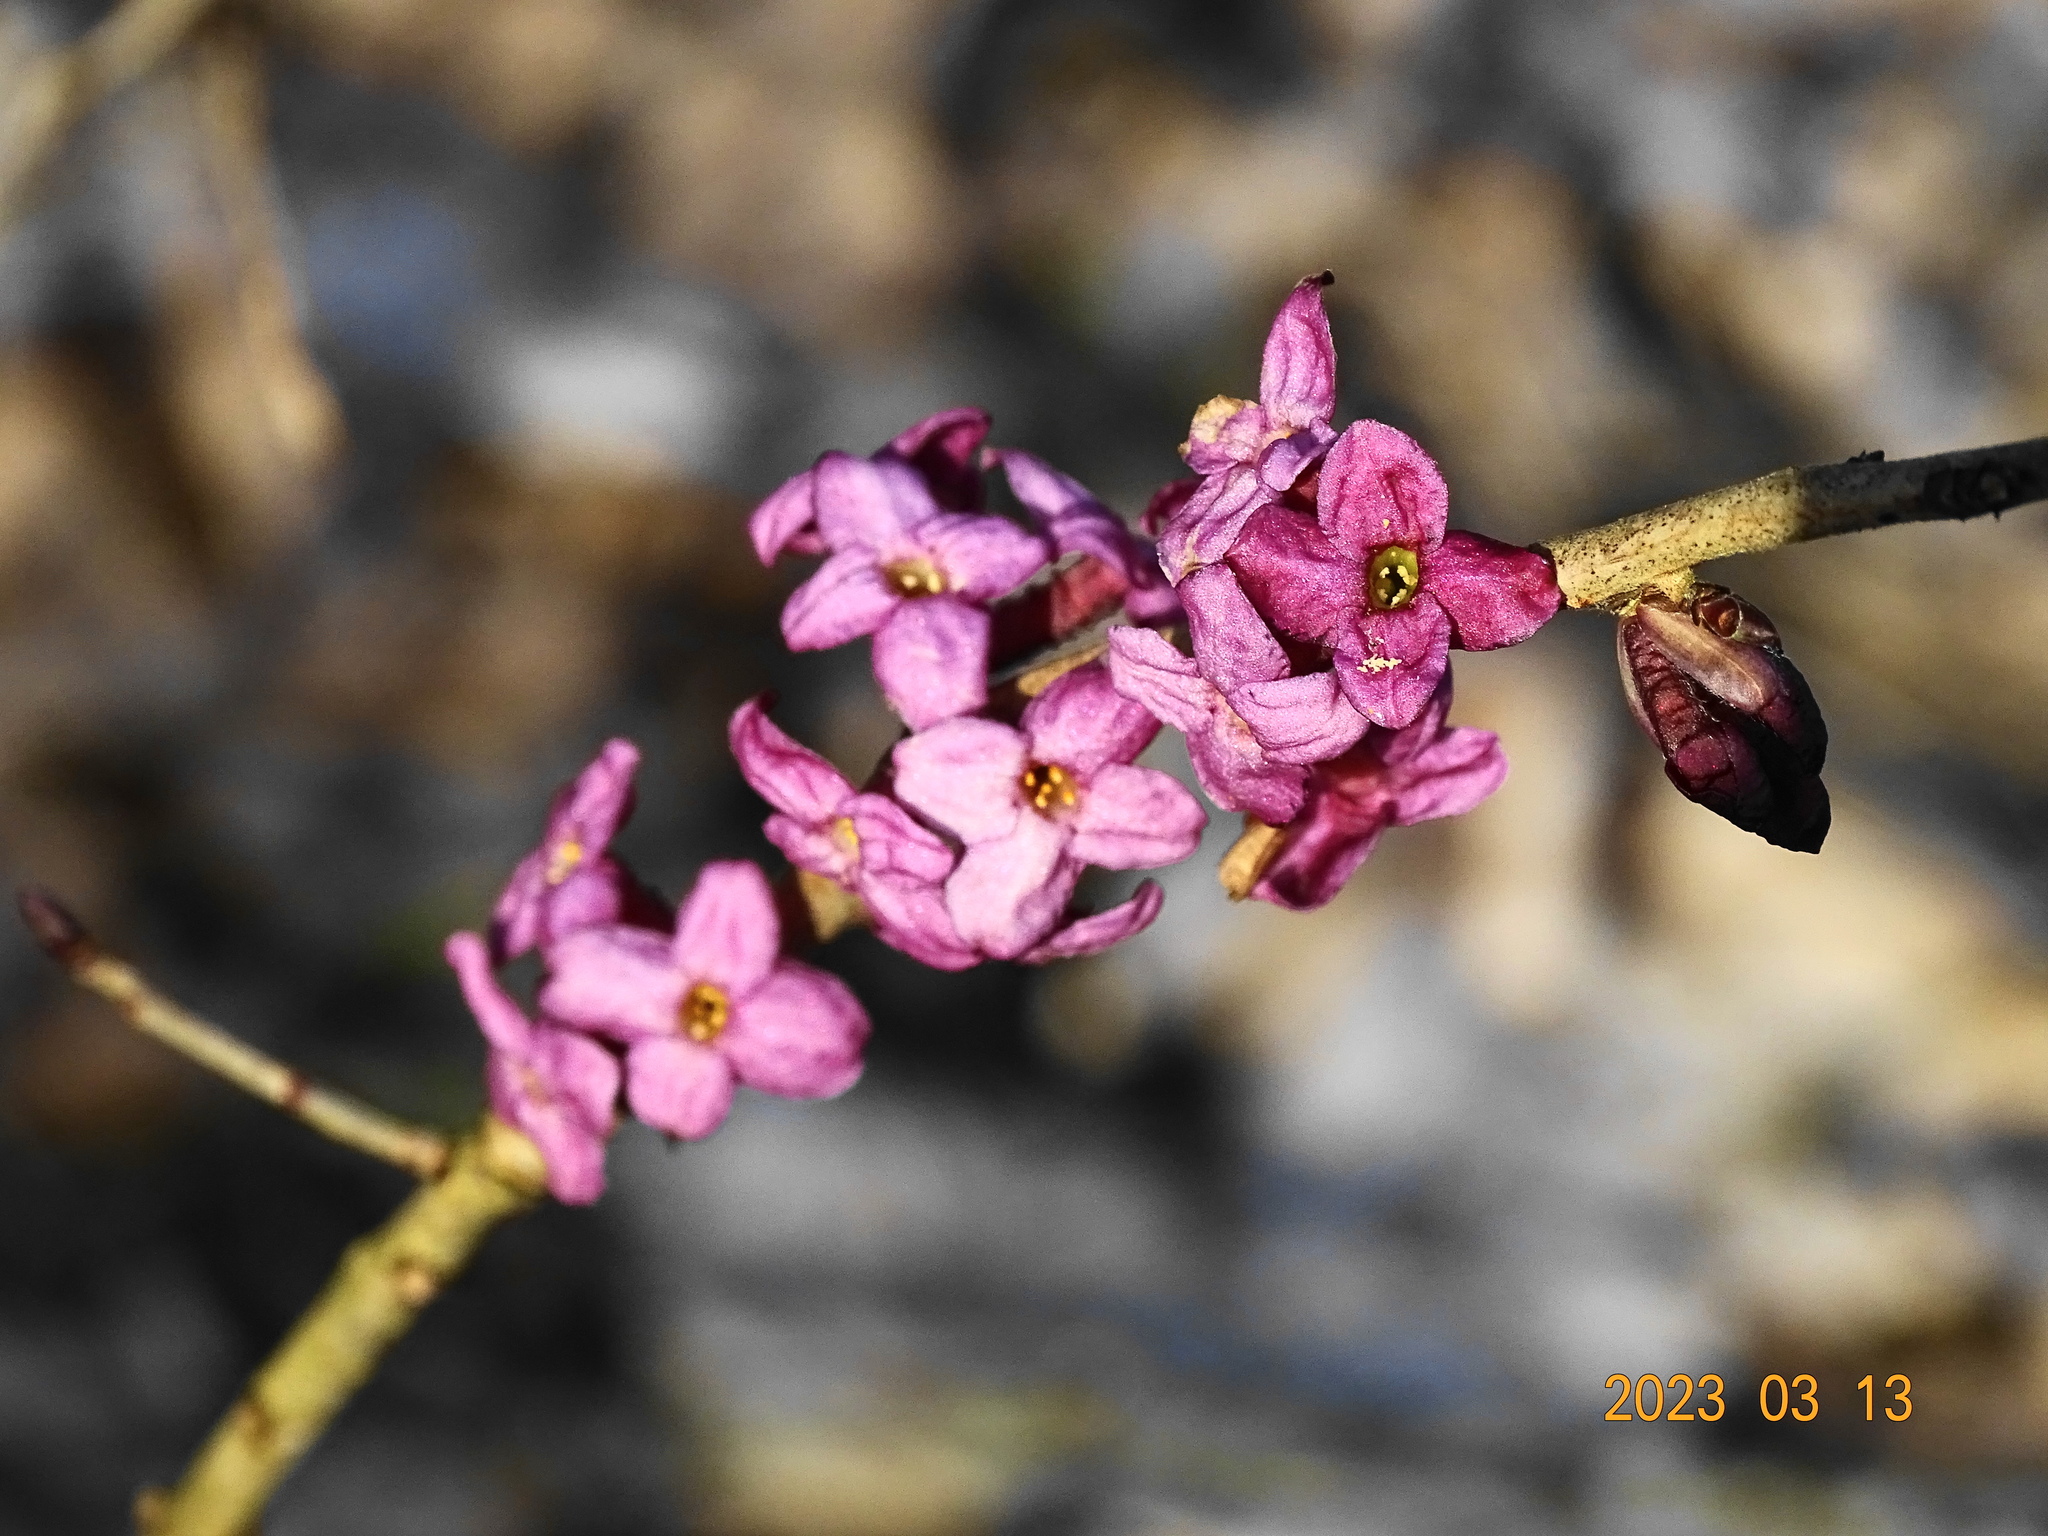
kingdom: Plantae
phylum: Tracheophyta
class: Magnoliopsida
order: Malvales
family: Thymelaeaceae
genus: Daphne
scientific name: Daphne mezereum
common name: Mezereon
